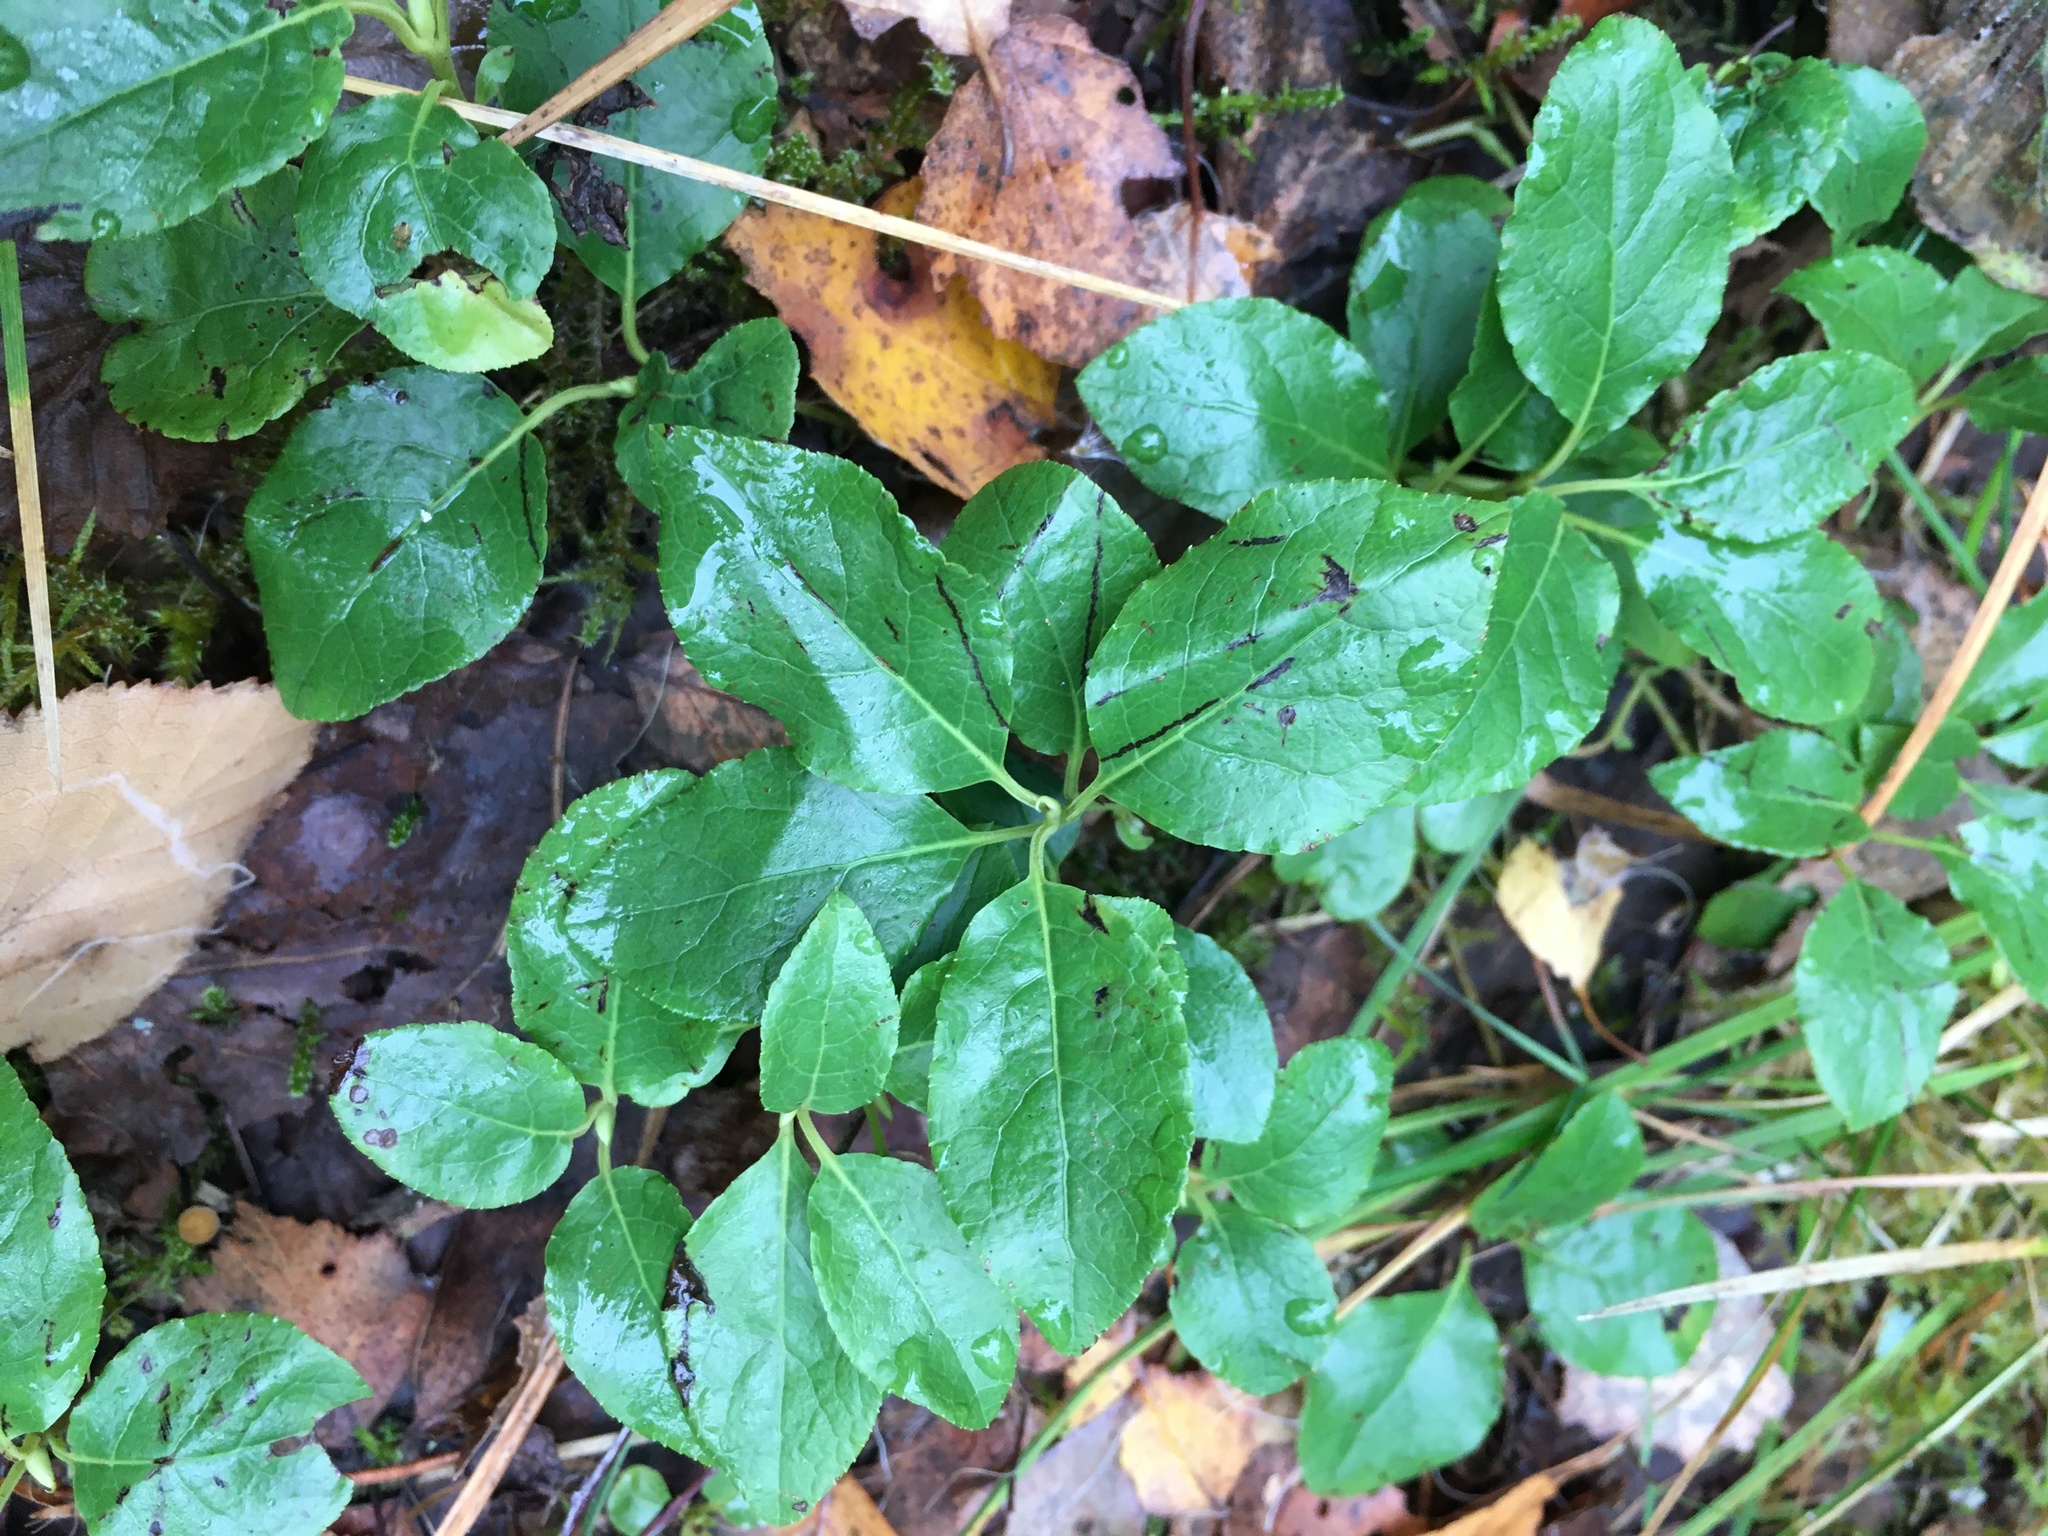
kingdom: Plantae
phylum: Tracheophyta
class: Magnoliopsida
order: Ericales
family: Ericaceae
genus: Orthilia
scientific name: Orthilia secunda
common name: One-sided orthilia
